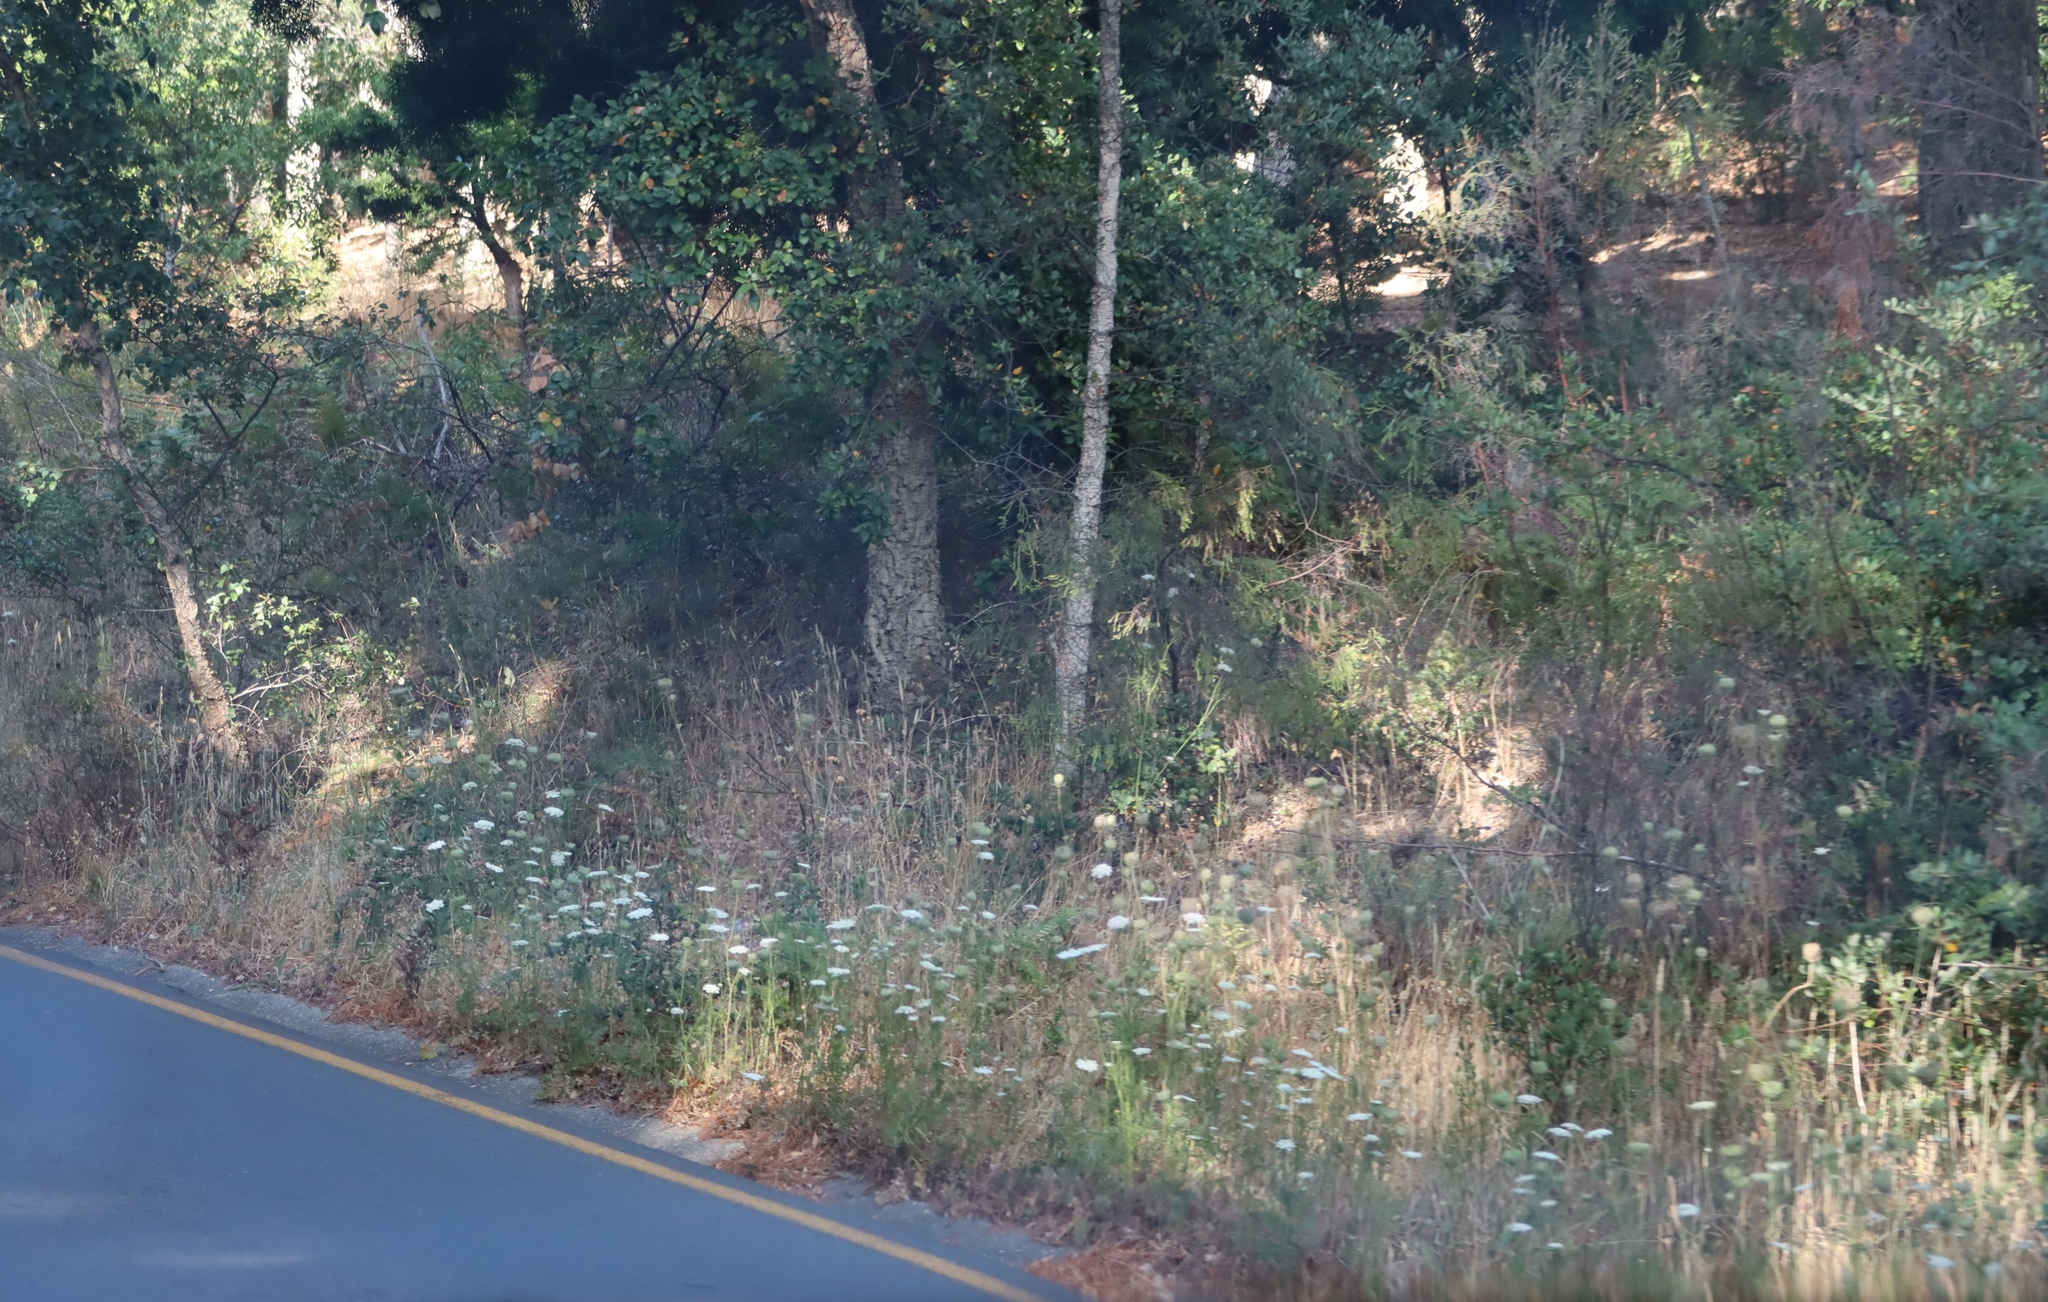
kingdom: Plantae
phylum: Tracheophyta
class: Magnoliopsida
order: Apiales
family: Apiaceae
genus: Daucus
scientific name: Daucus carota
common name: Wild carrot
